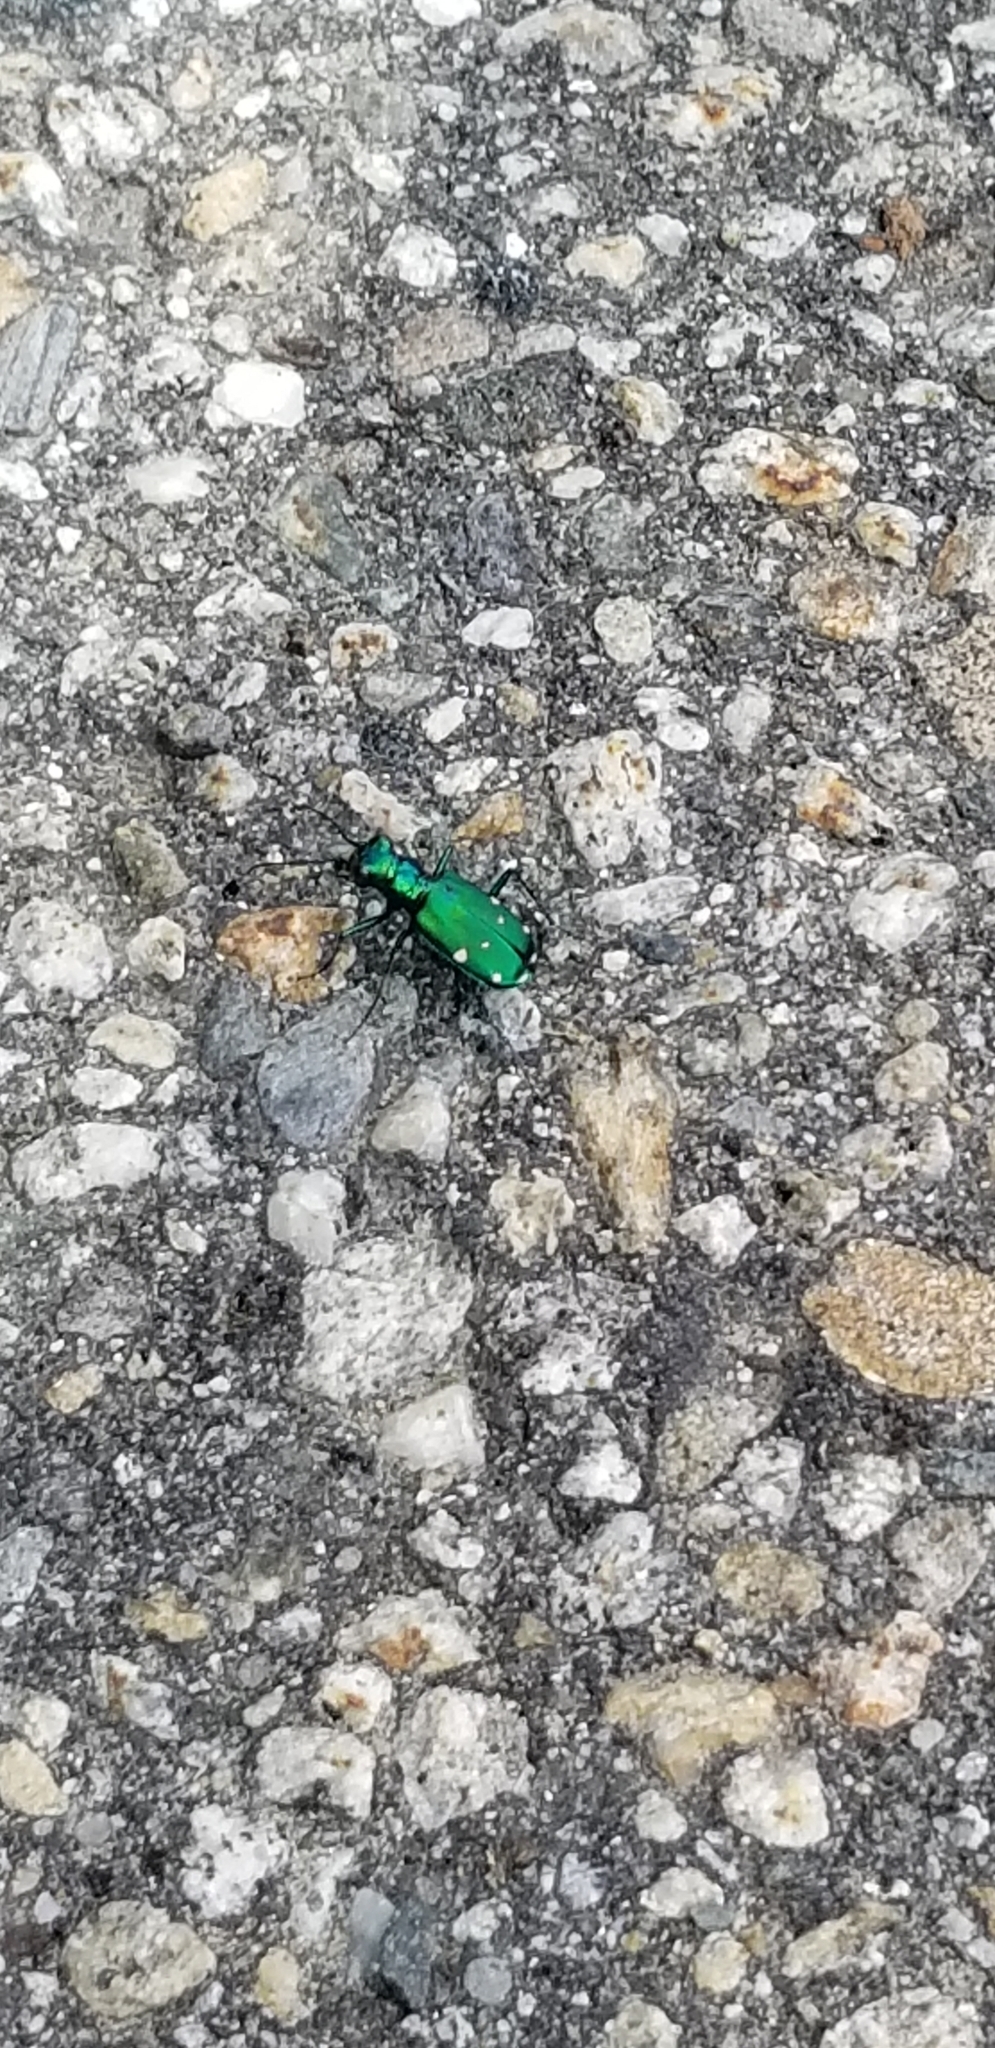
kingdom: Animalia
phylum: Arthropoda
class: Insecta
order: Coleoptera
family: Carabidae
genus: Cicindela
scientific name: Cicindela sexguttata
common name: Six-spotted tiger beetle
